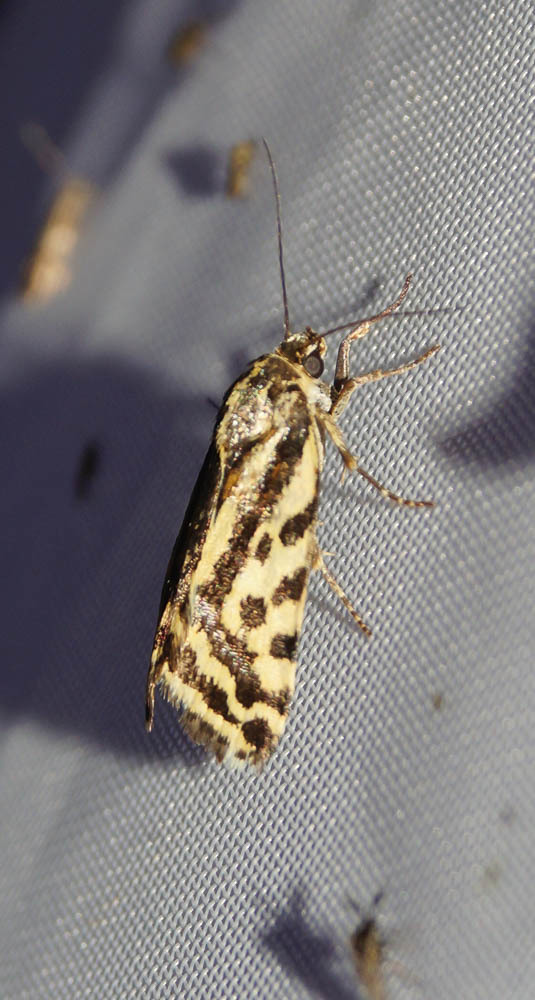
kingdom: Animalia
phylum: Arthropoda
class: Insecta
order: Lepidoptera
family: Noctuidae
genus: Acontia
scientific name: Acontia trabealis
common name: Spotted sulphur
